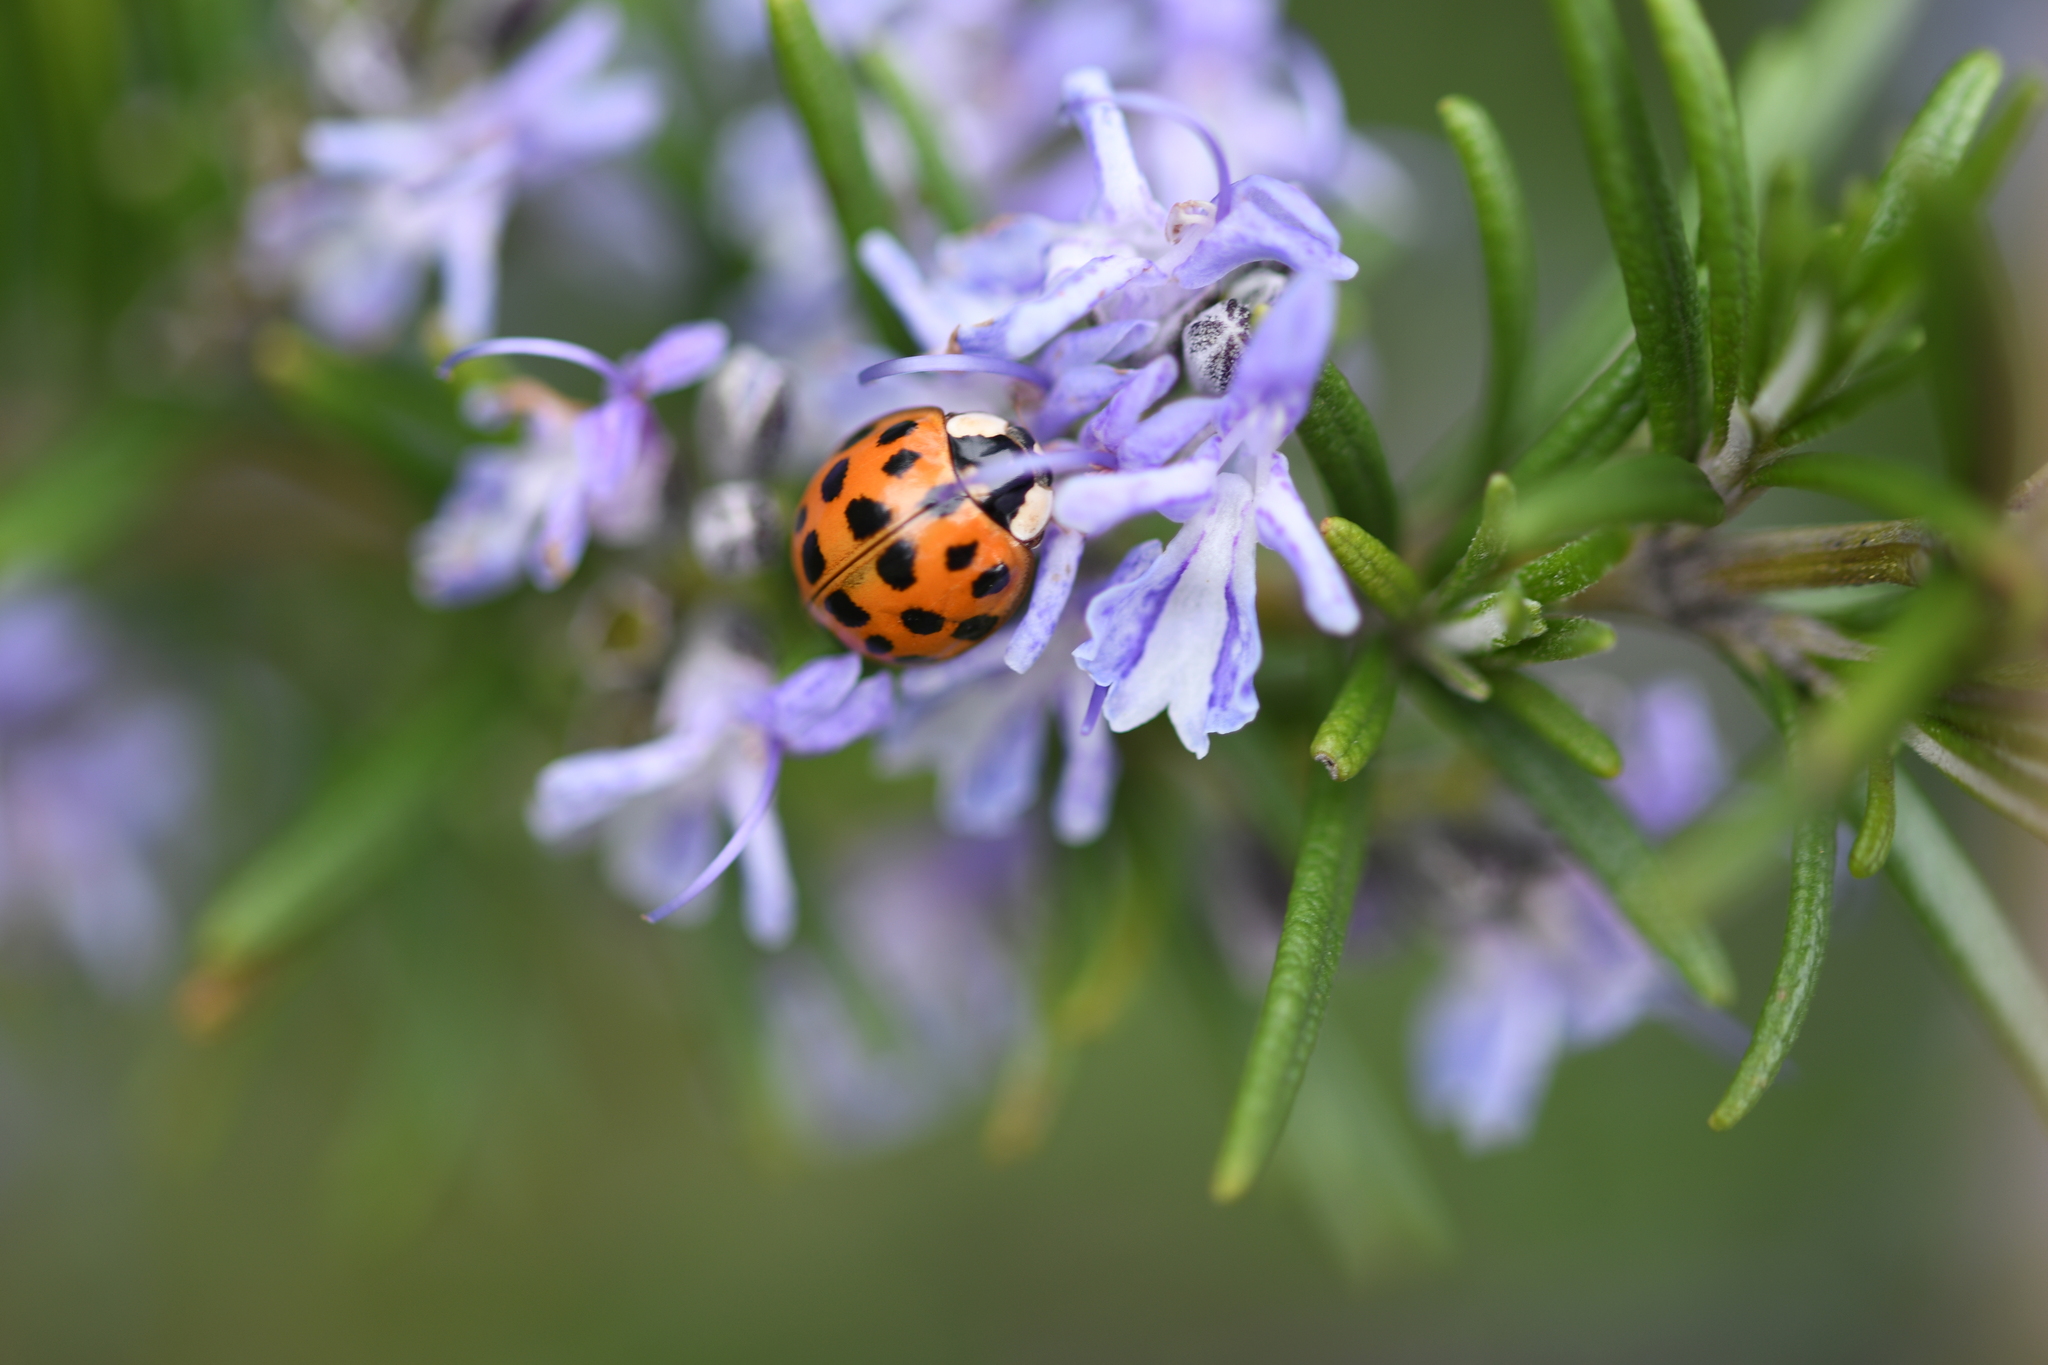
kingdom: Animalia
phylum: Arthropoda
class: Insecta
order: Coleoptera
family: Coccinellidae
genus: Harmonia
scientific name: Harmonia axyridis
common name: Harlequin ladybird
